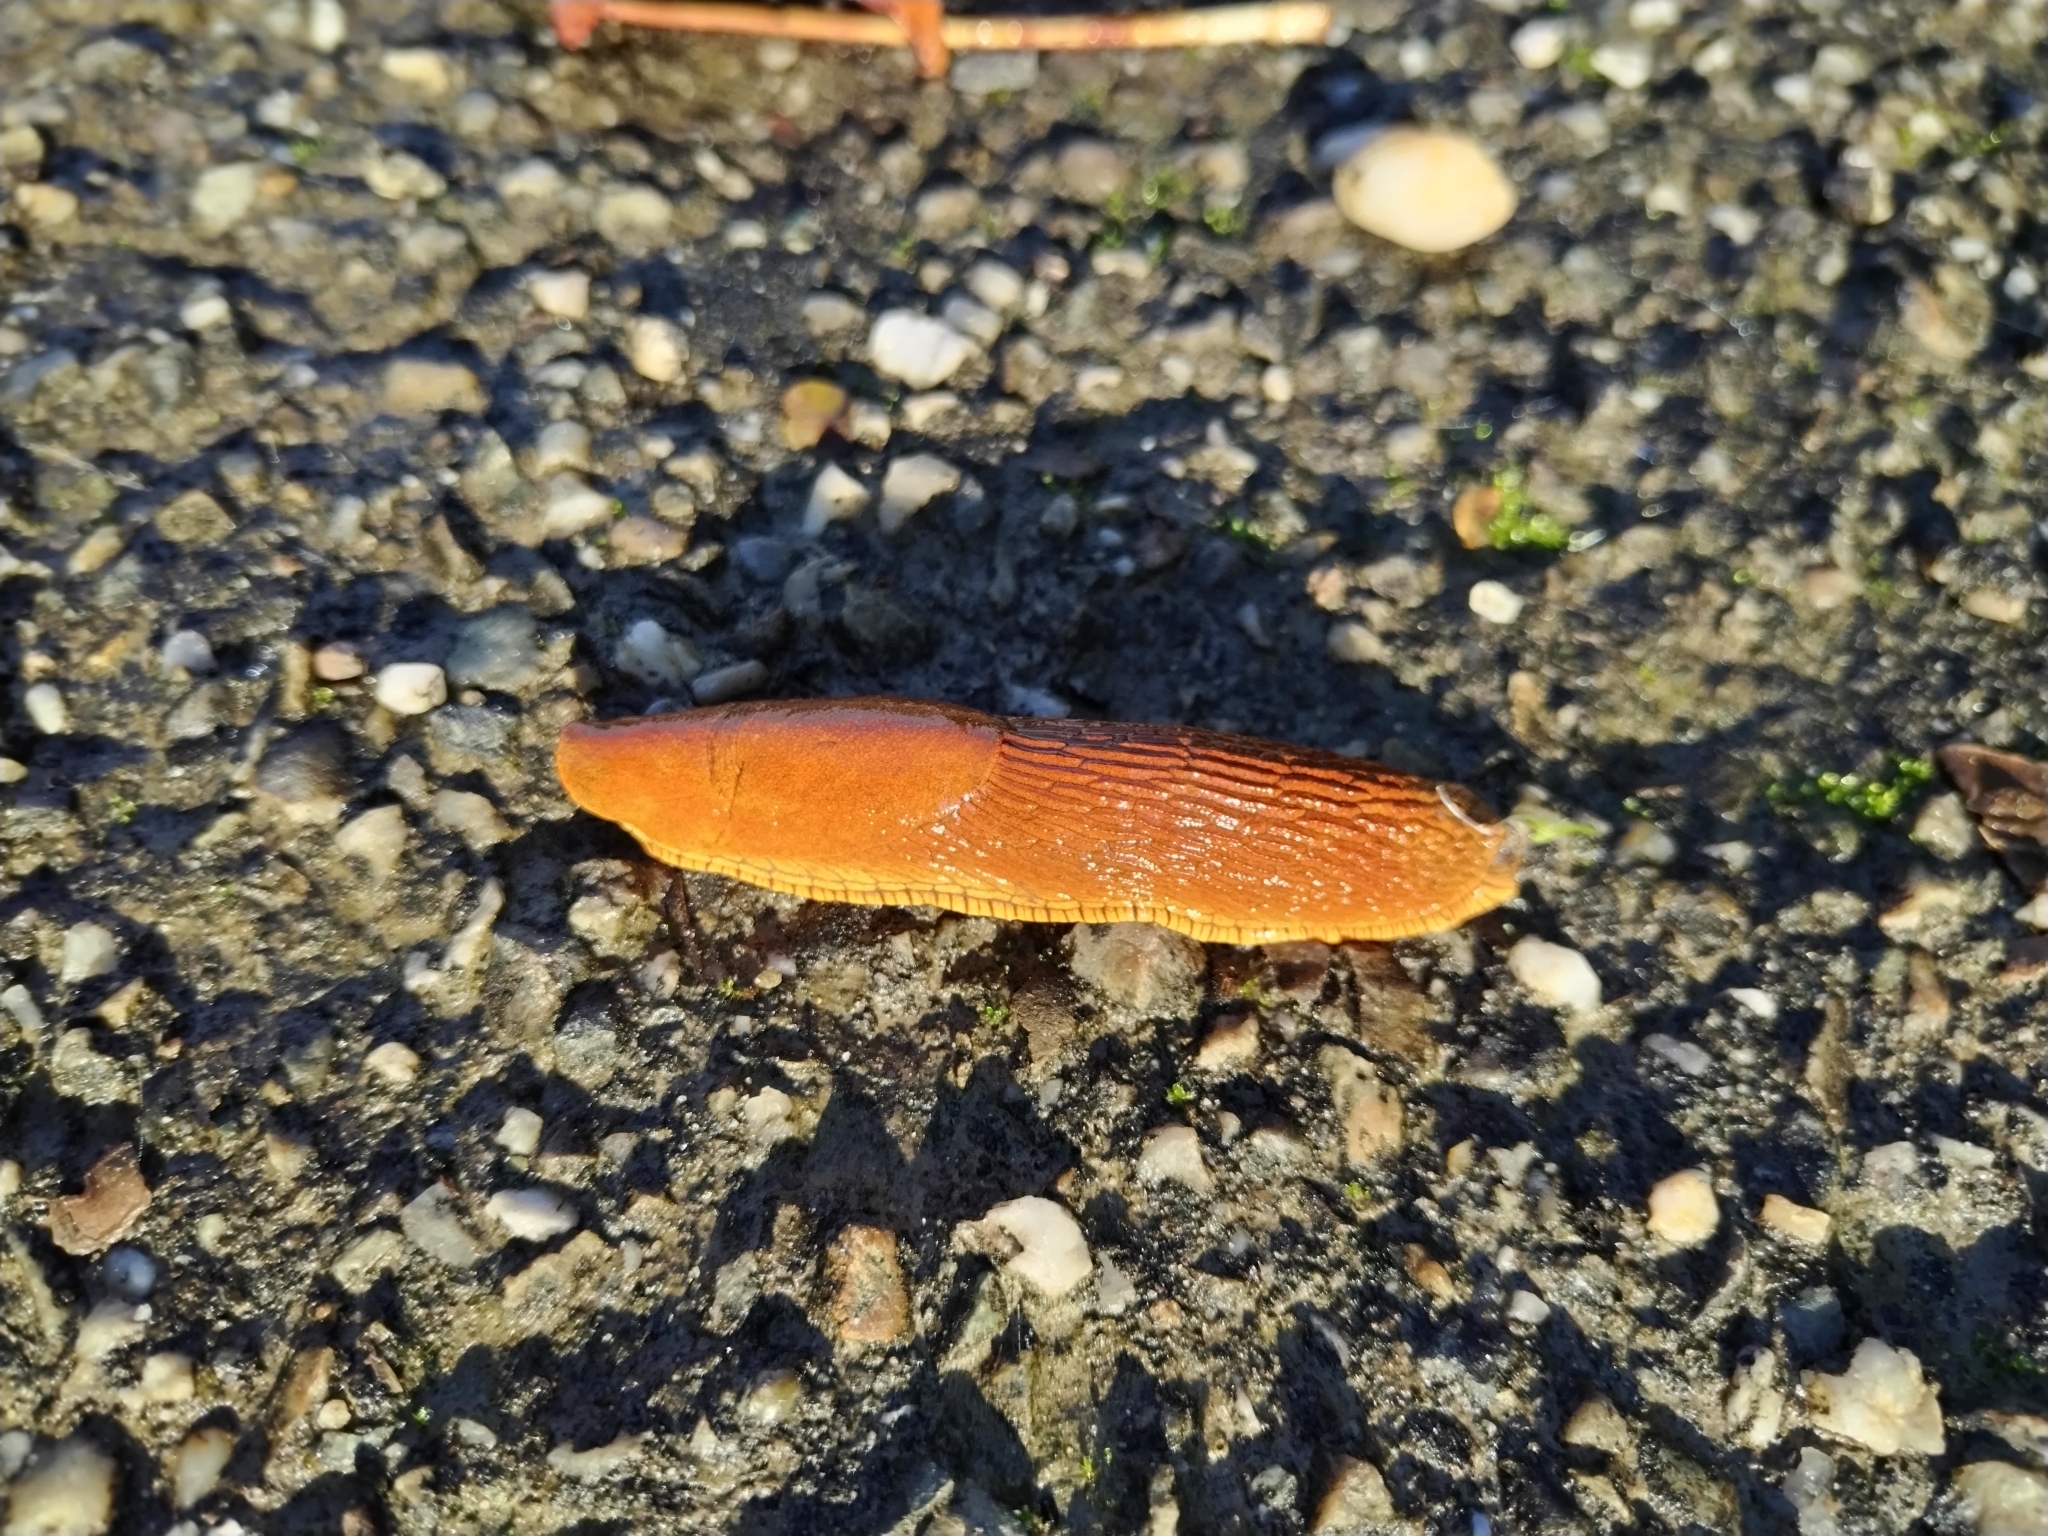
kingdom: Animalia
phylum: Mollusca
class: Gastropoda
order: Stylommatophora
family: Arionidae
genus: Arion
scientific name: Arion vulgaris
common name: Lusitanian slug
